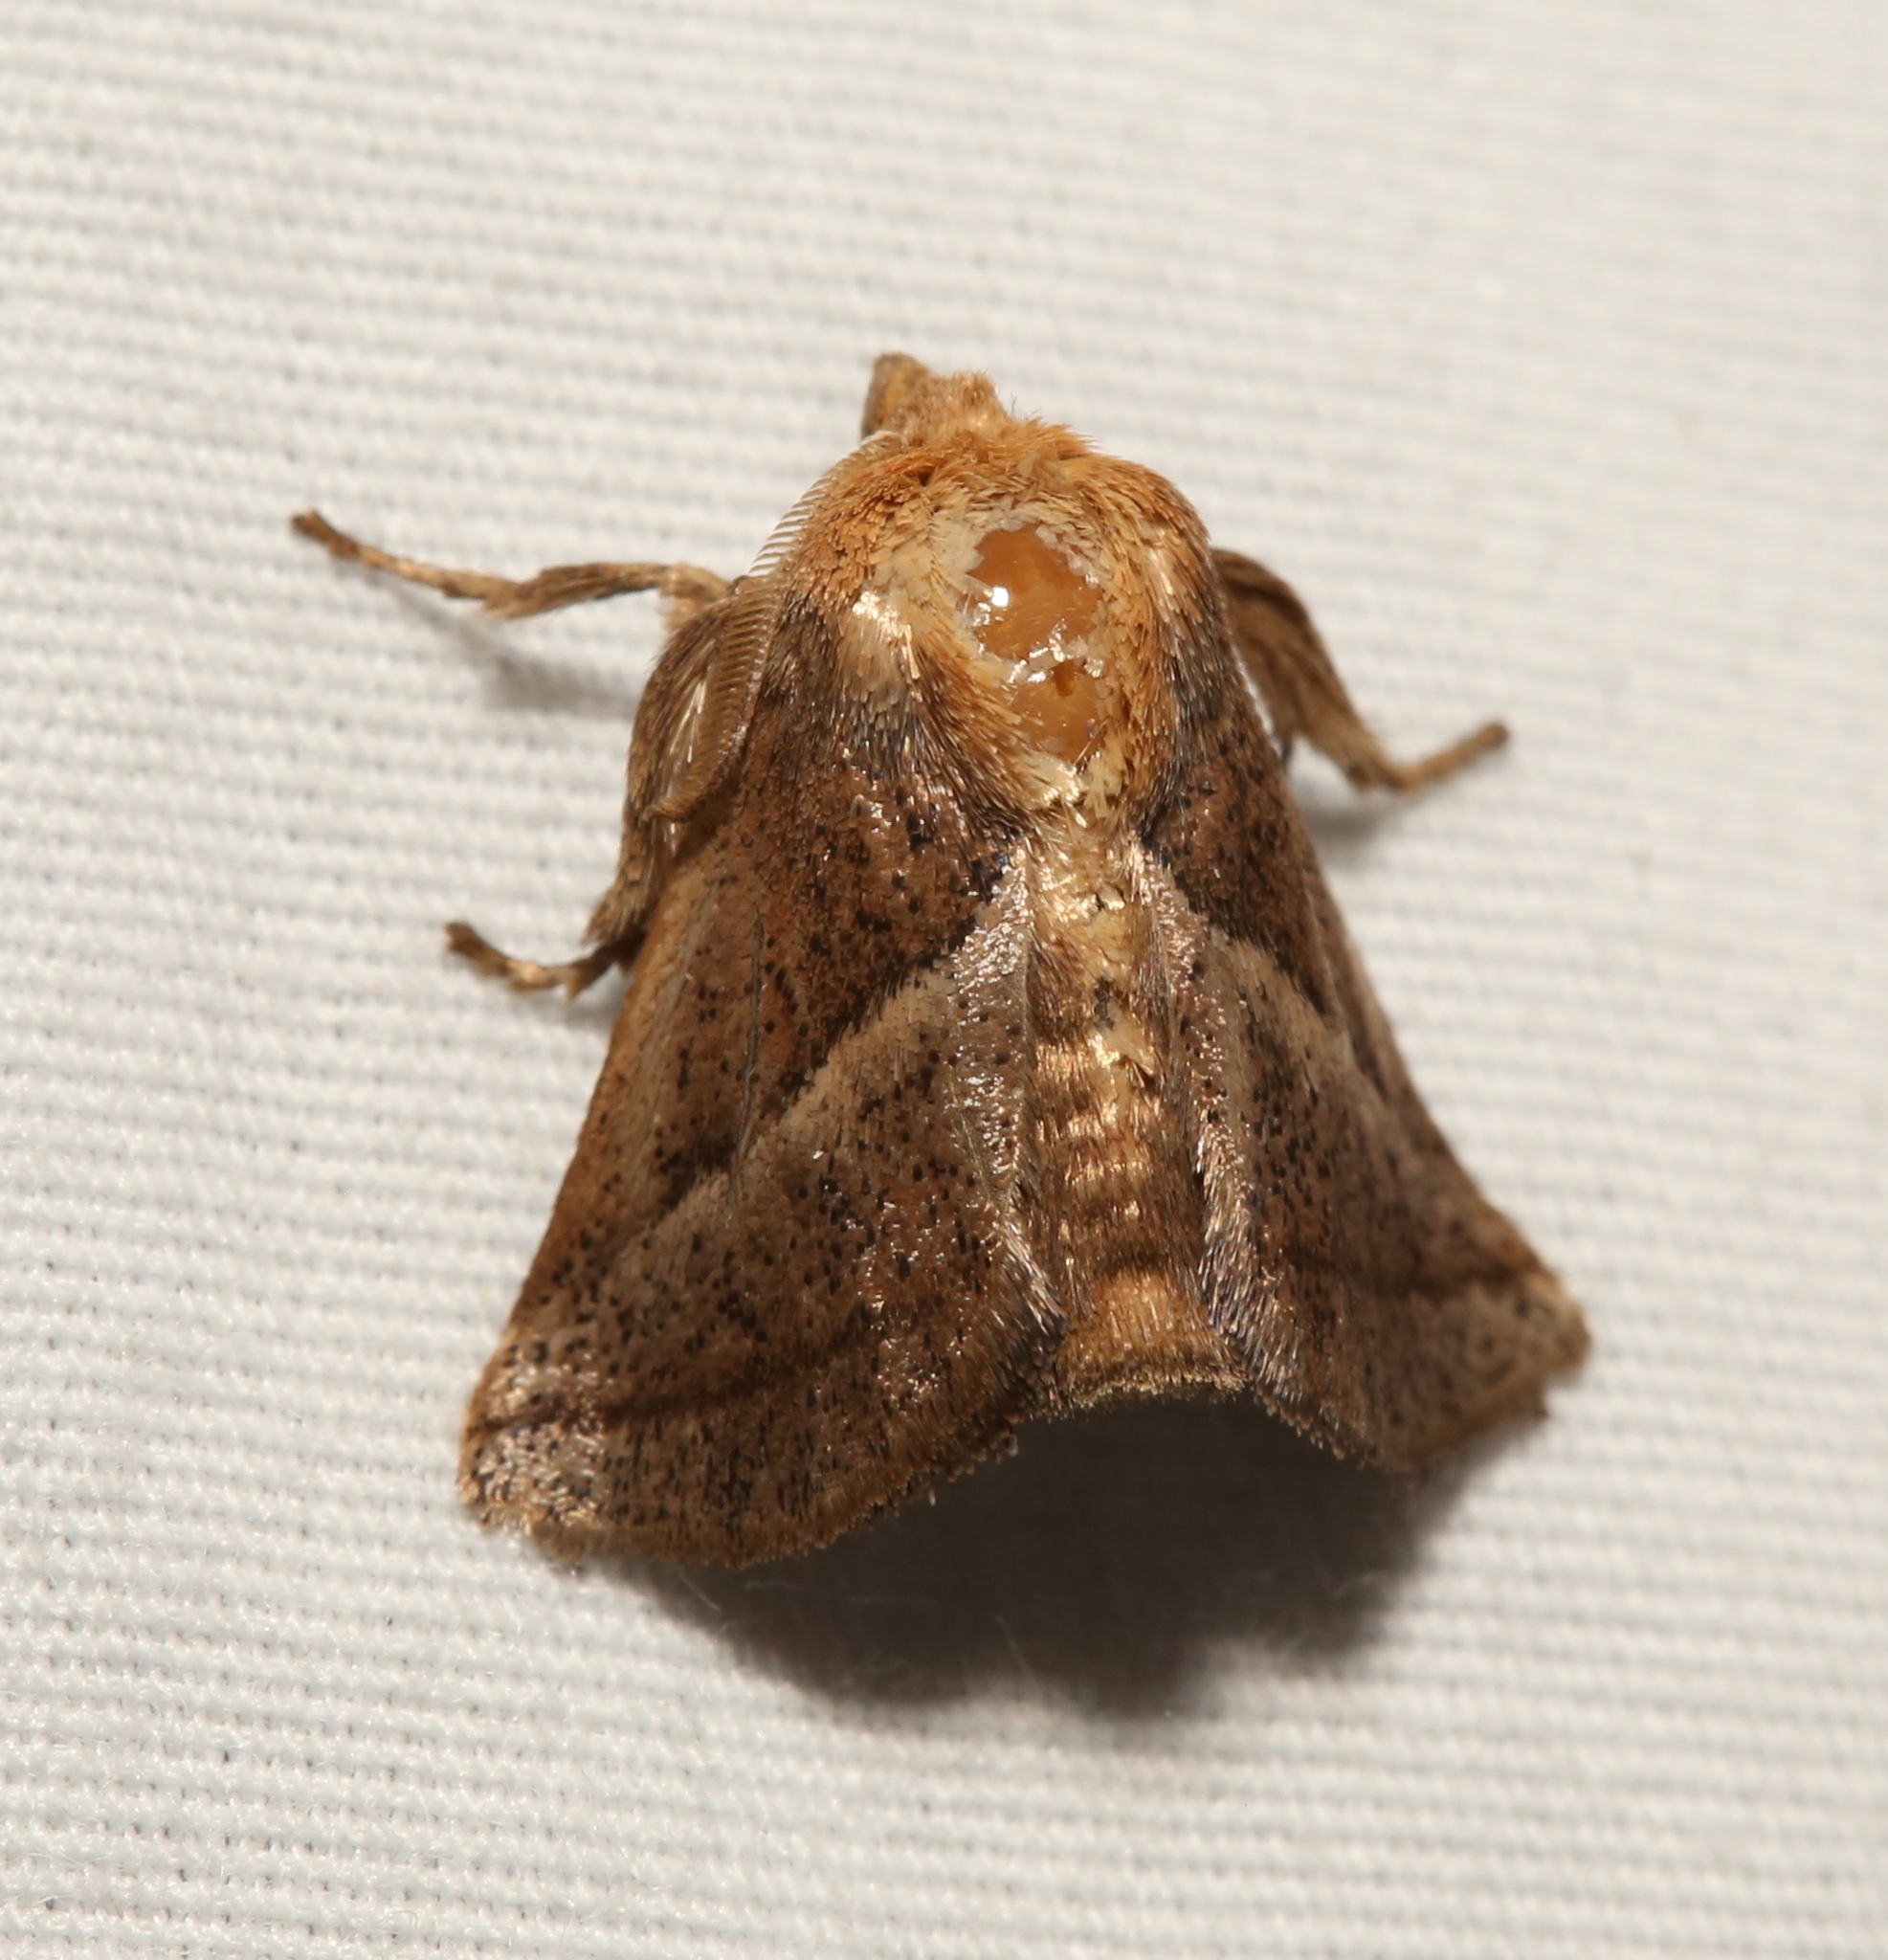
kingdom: Animalia
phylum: Arthropoda
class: Insecta
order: Lepidoptera
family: Limacodidae
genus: Natada
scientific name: Natada nasoni
